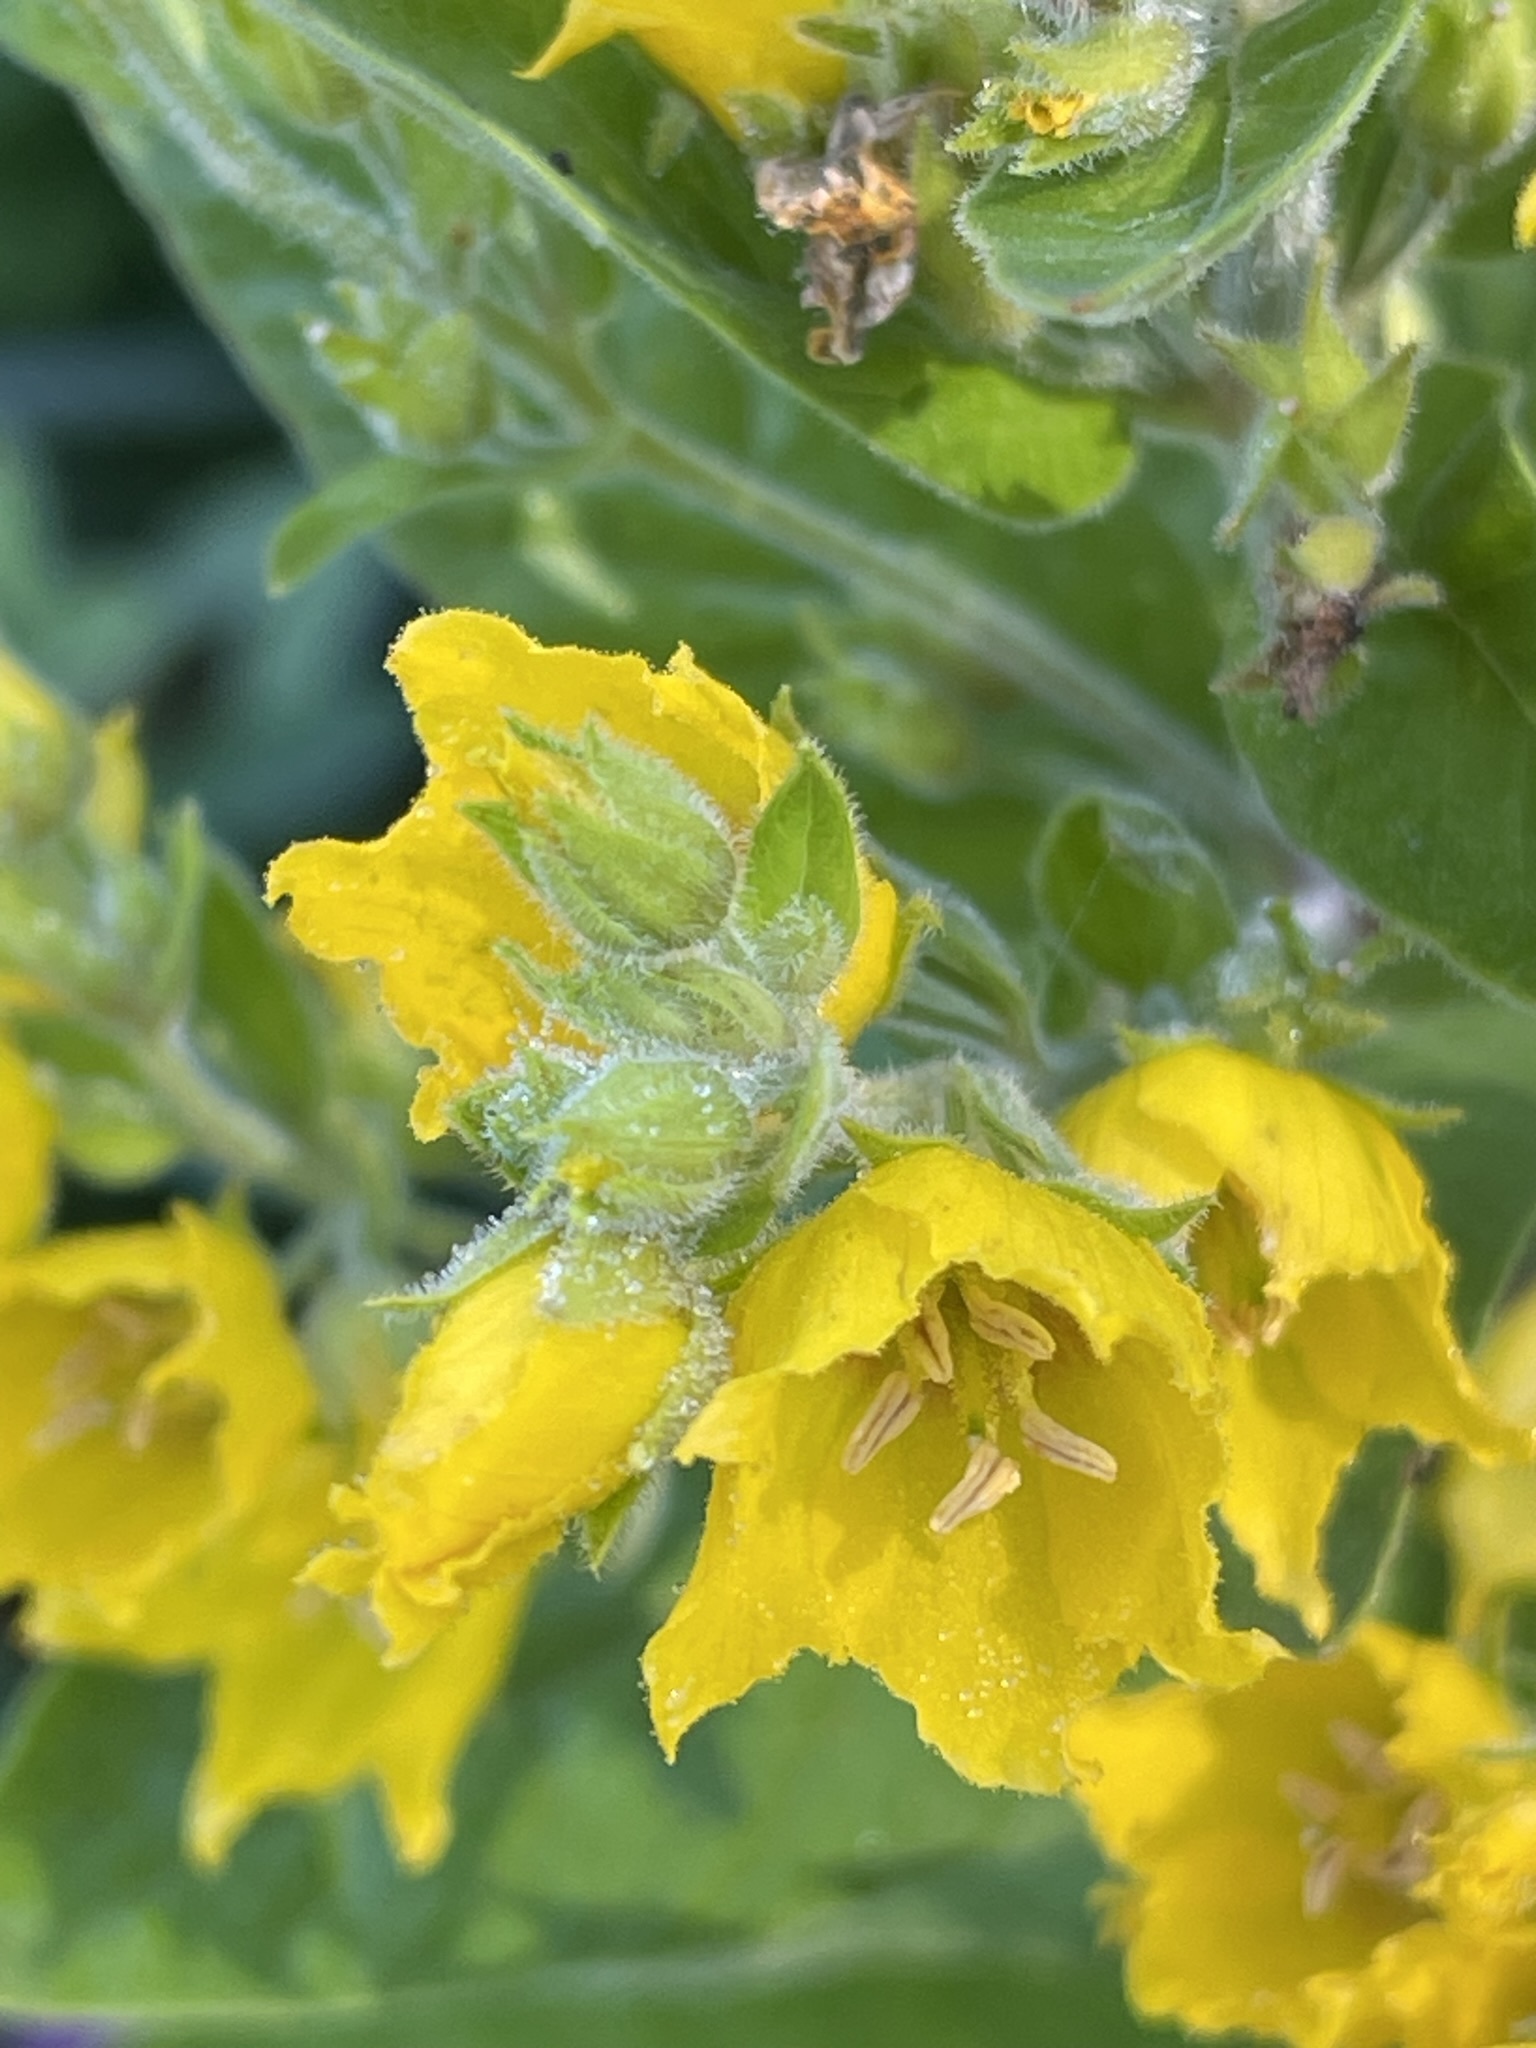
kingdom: Plantae
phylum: Tracheophyta
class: Magnoliopsida
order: Ericales
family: Primulaceae
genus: Lysimachia
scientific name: Lysimachia punctata
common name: Dotted loosestrife
